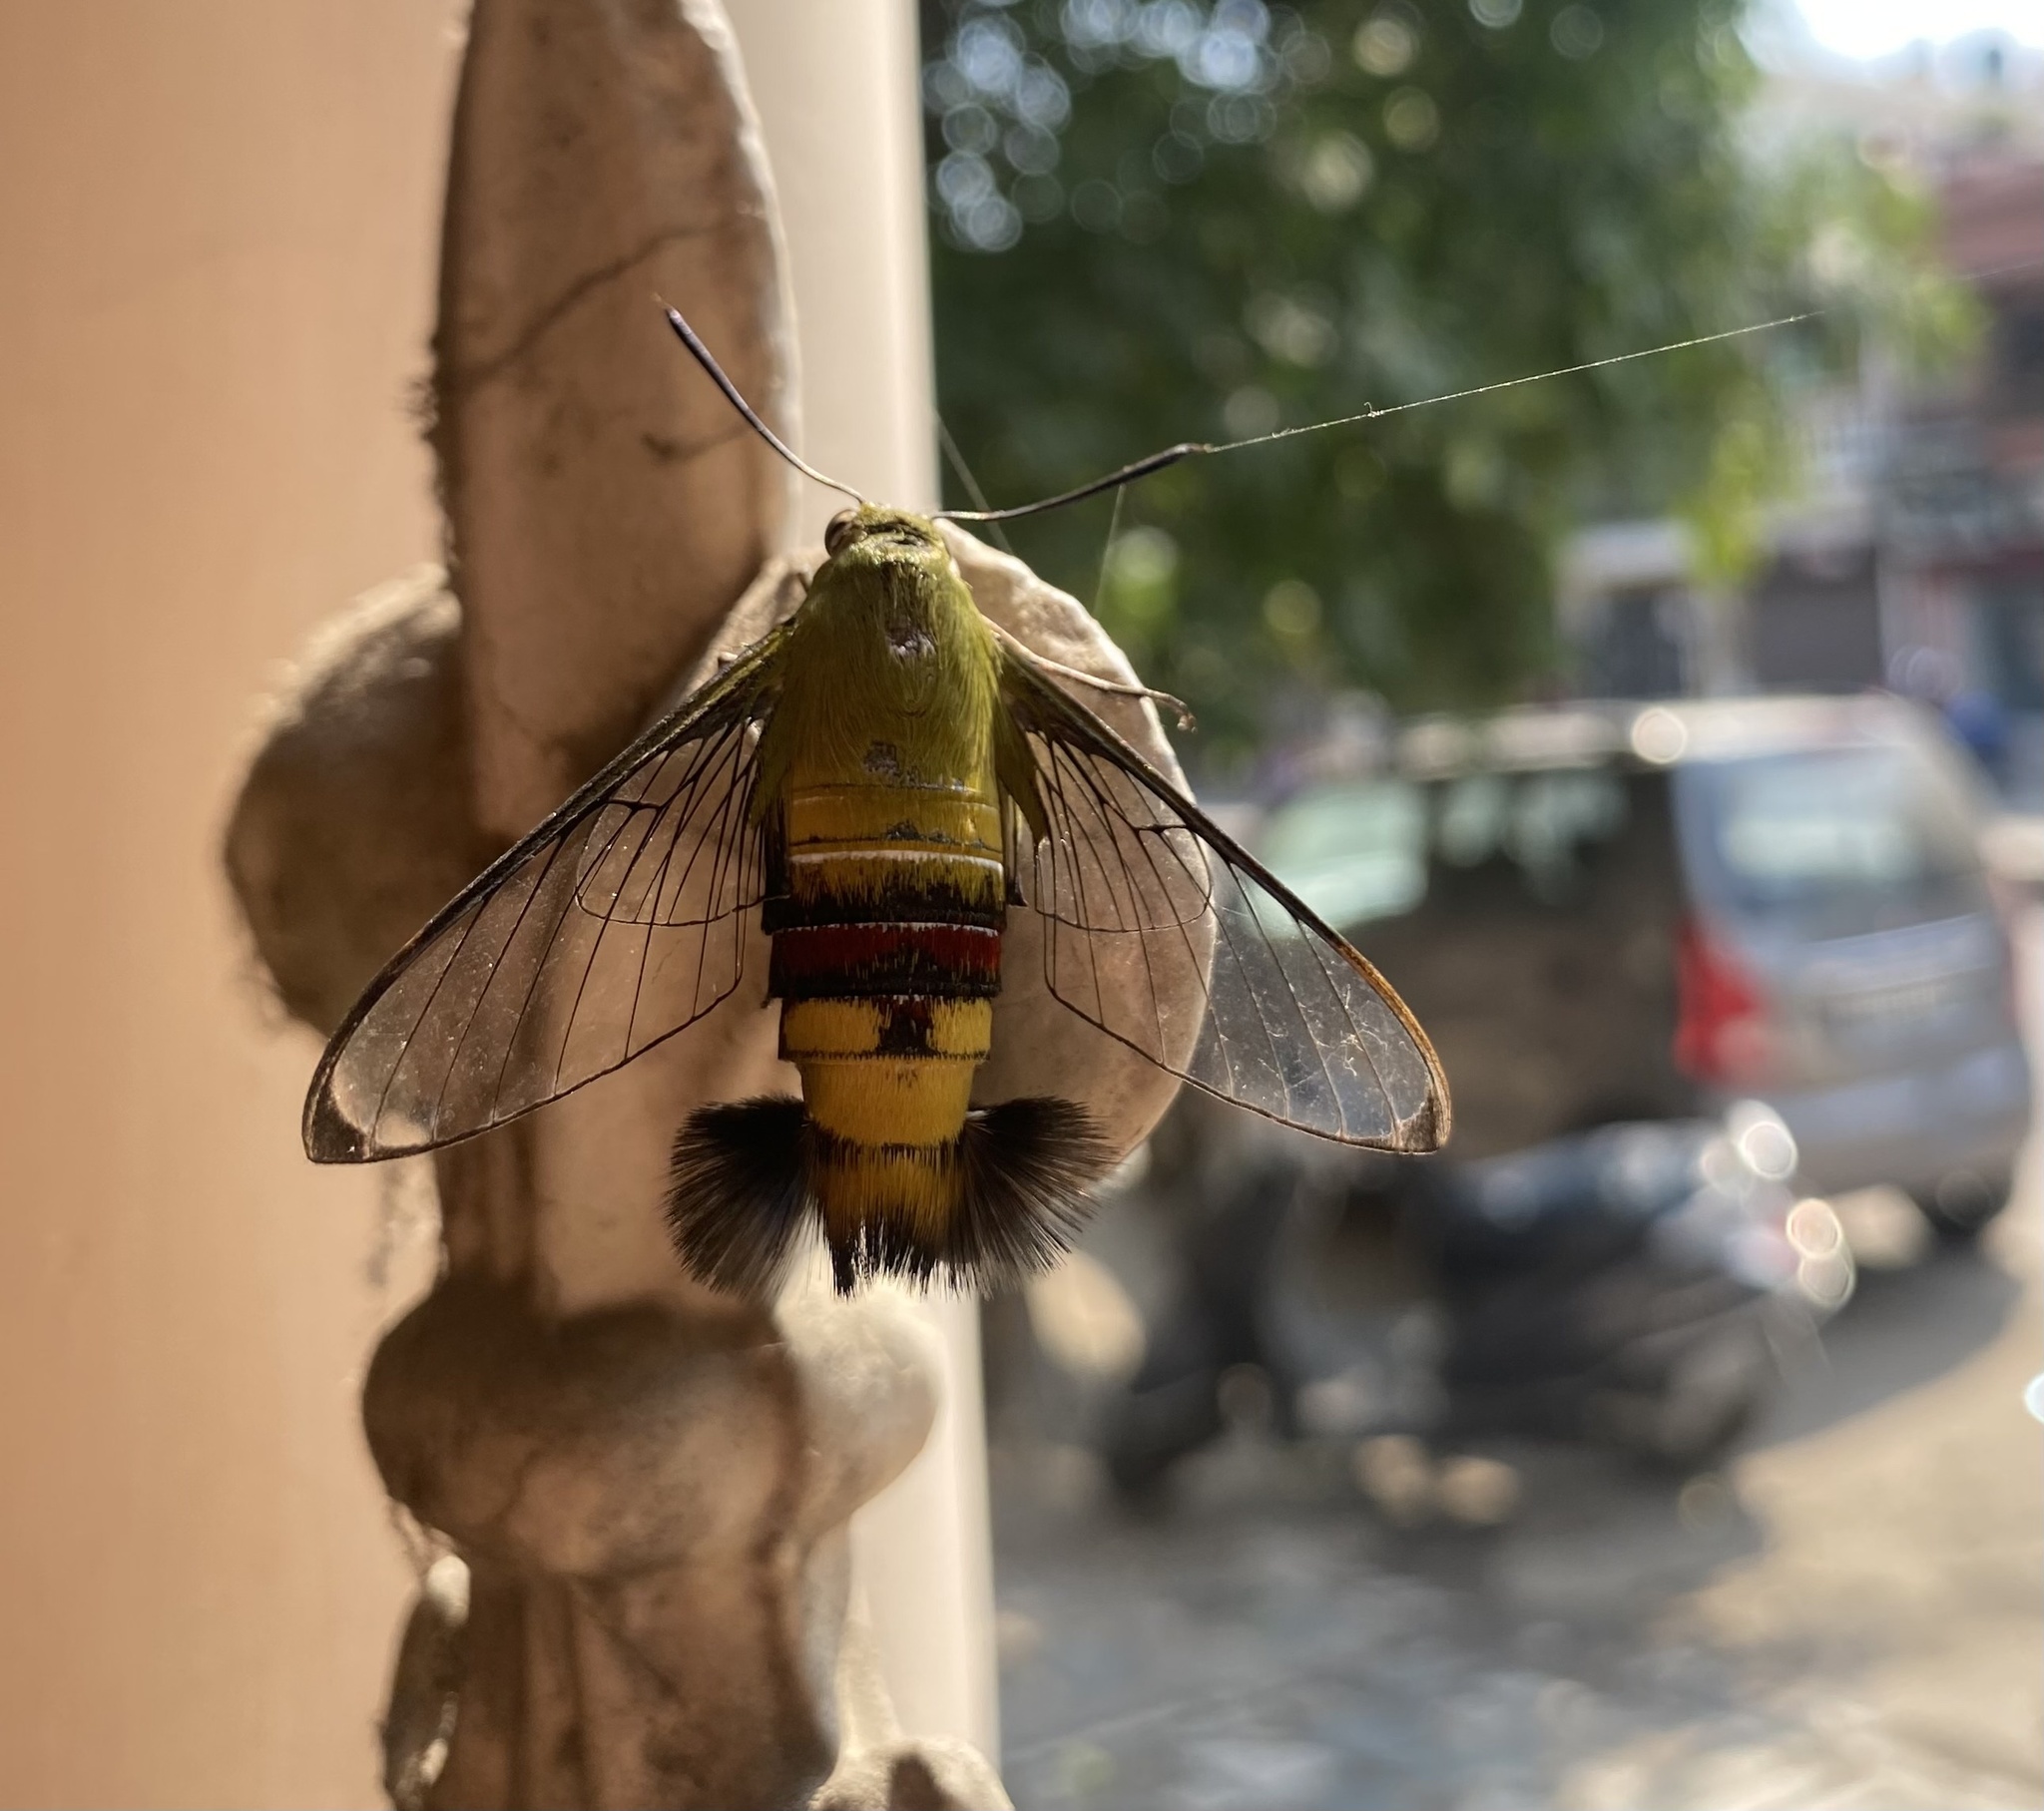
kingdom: Animalia
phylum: Arthropoda
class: Insecta
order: Lepidoptera
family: Sphingidae
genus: Cephonodes
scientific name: Cephonodes hylas
